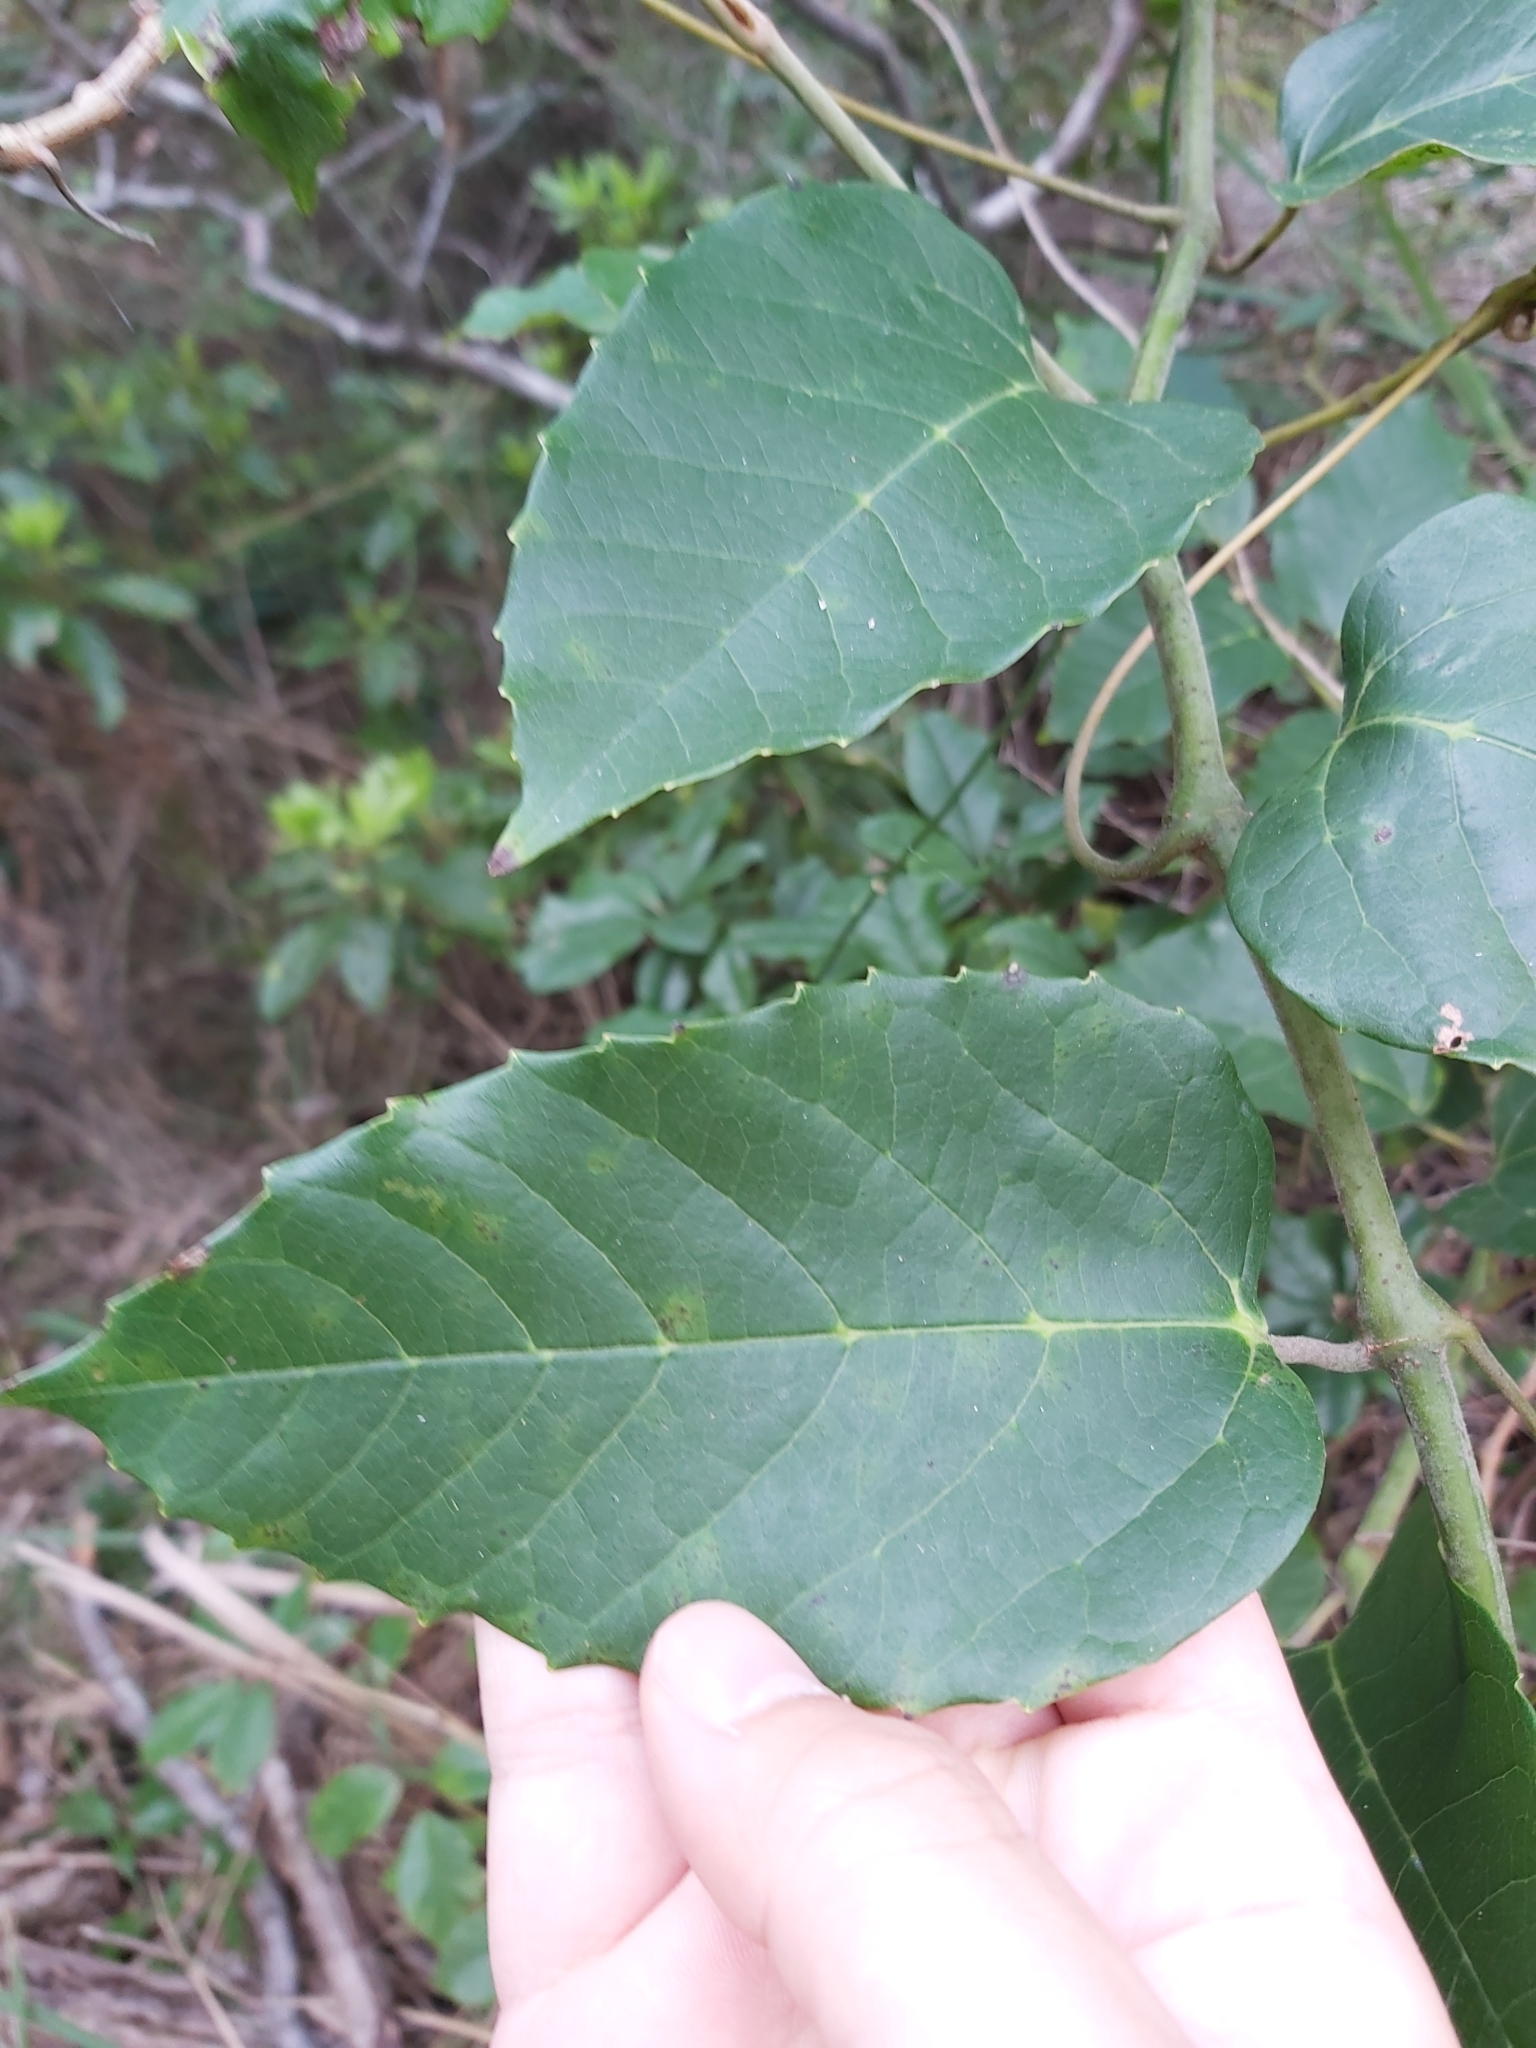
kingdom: Plantae
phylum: Tracheophyta
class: Magnoliopsida
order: Vitales
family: Vitaceae
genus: Cissus
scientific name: Cissus antarctica
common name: Kangaroo vine
